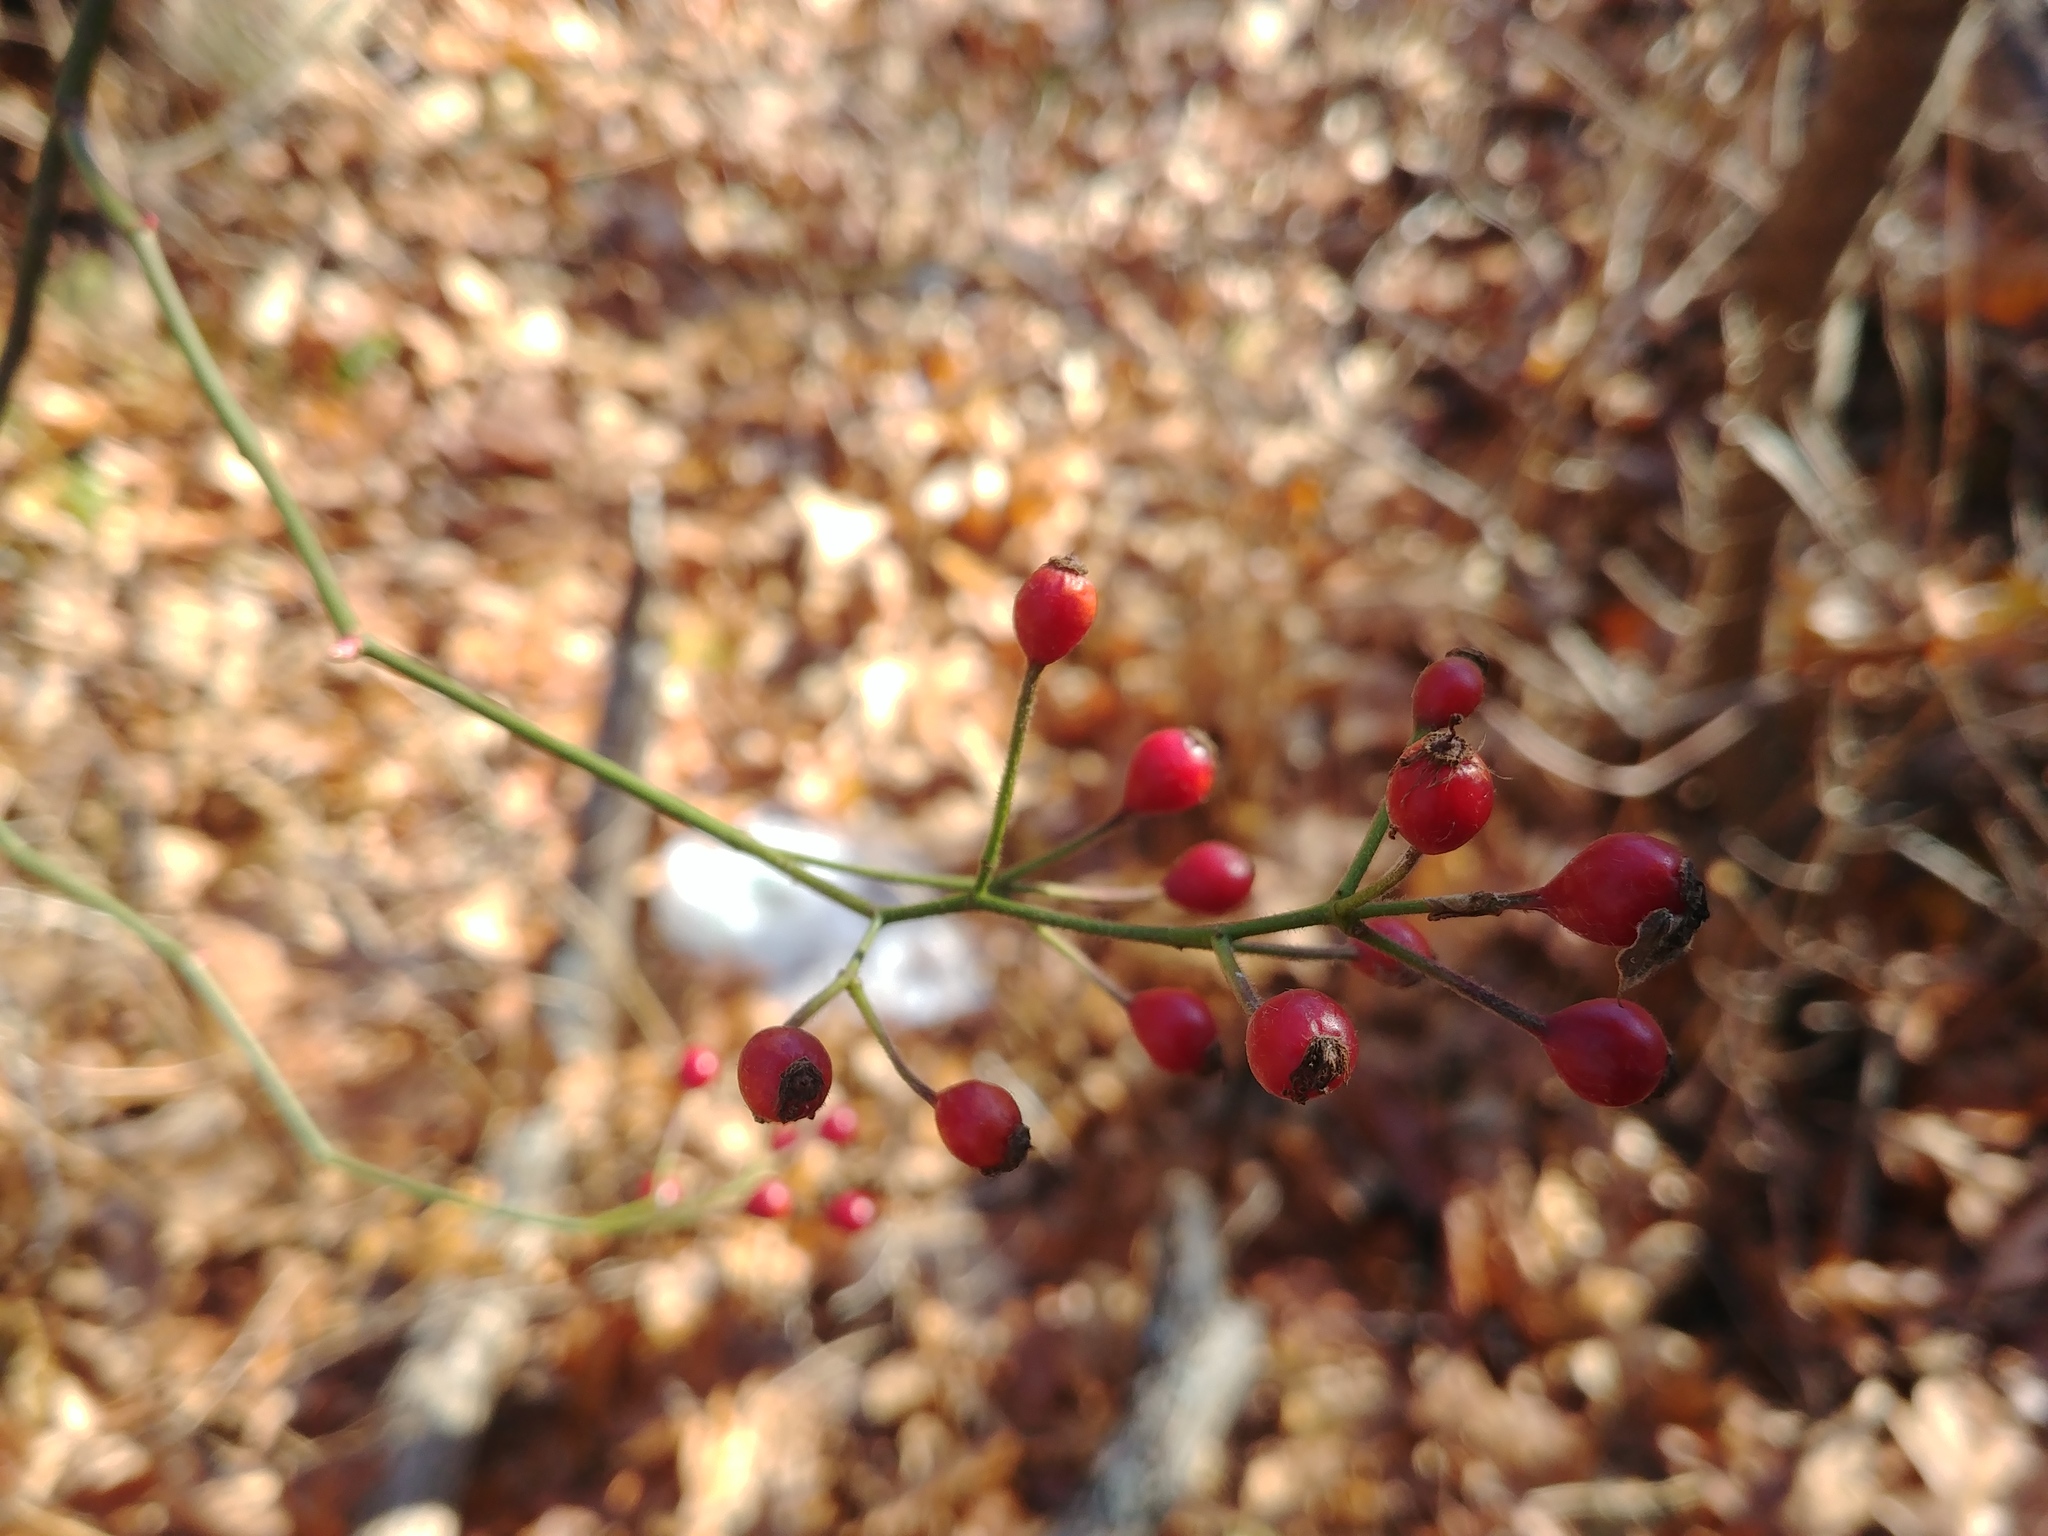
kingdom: Plantae
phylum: Tracheophyta
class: Magnoliopsida
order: Rosales
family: Rosaceae
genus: Rosa
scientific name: Rosa multiflora
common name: Multiflora rose
